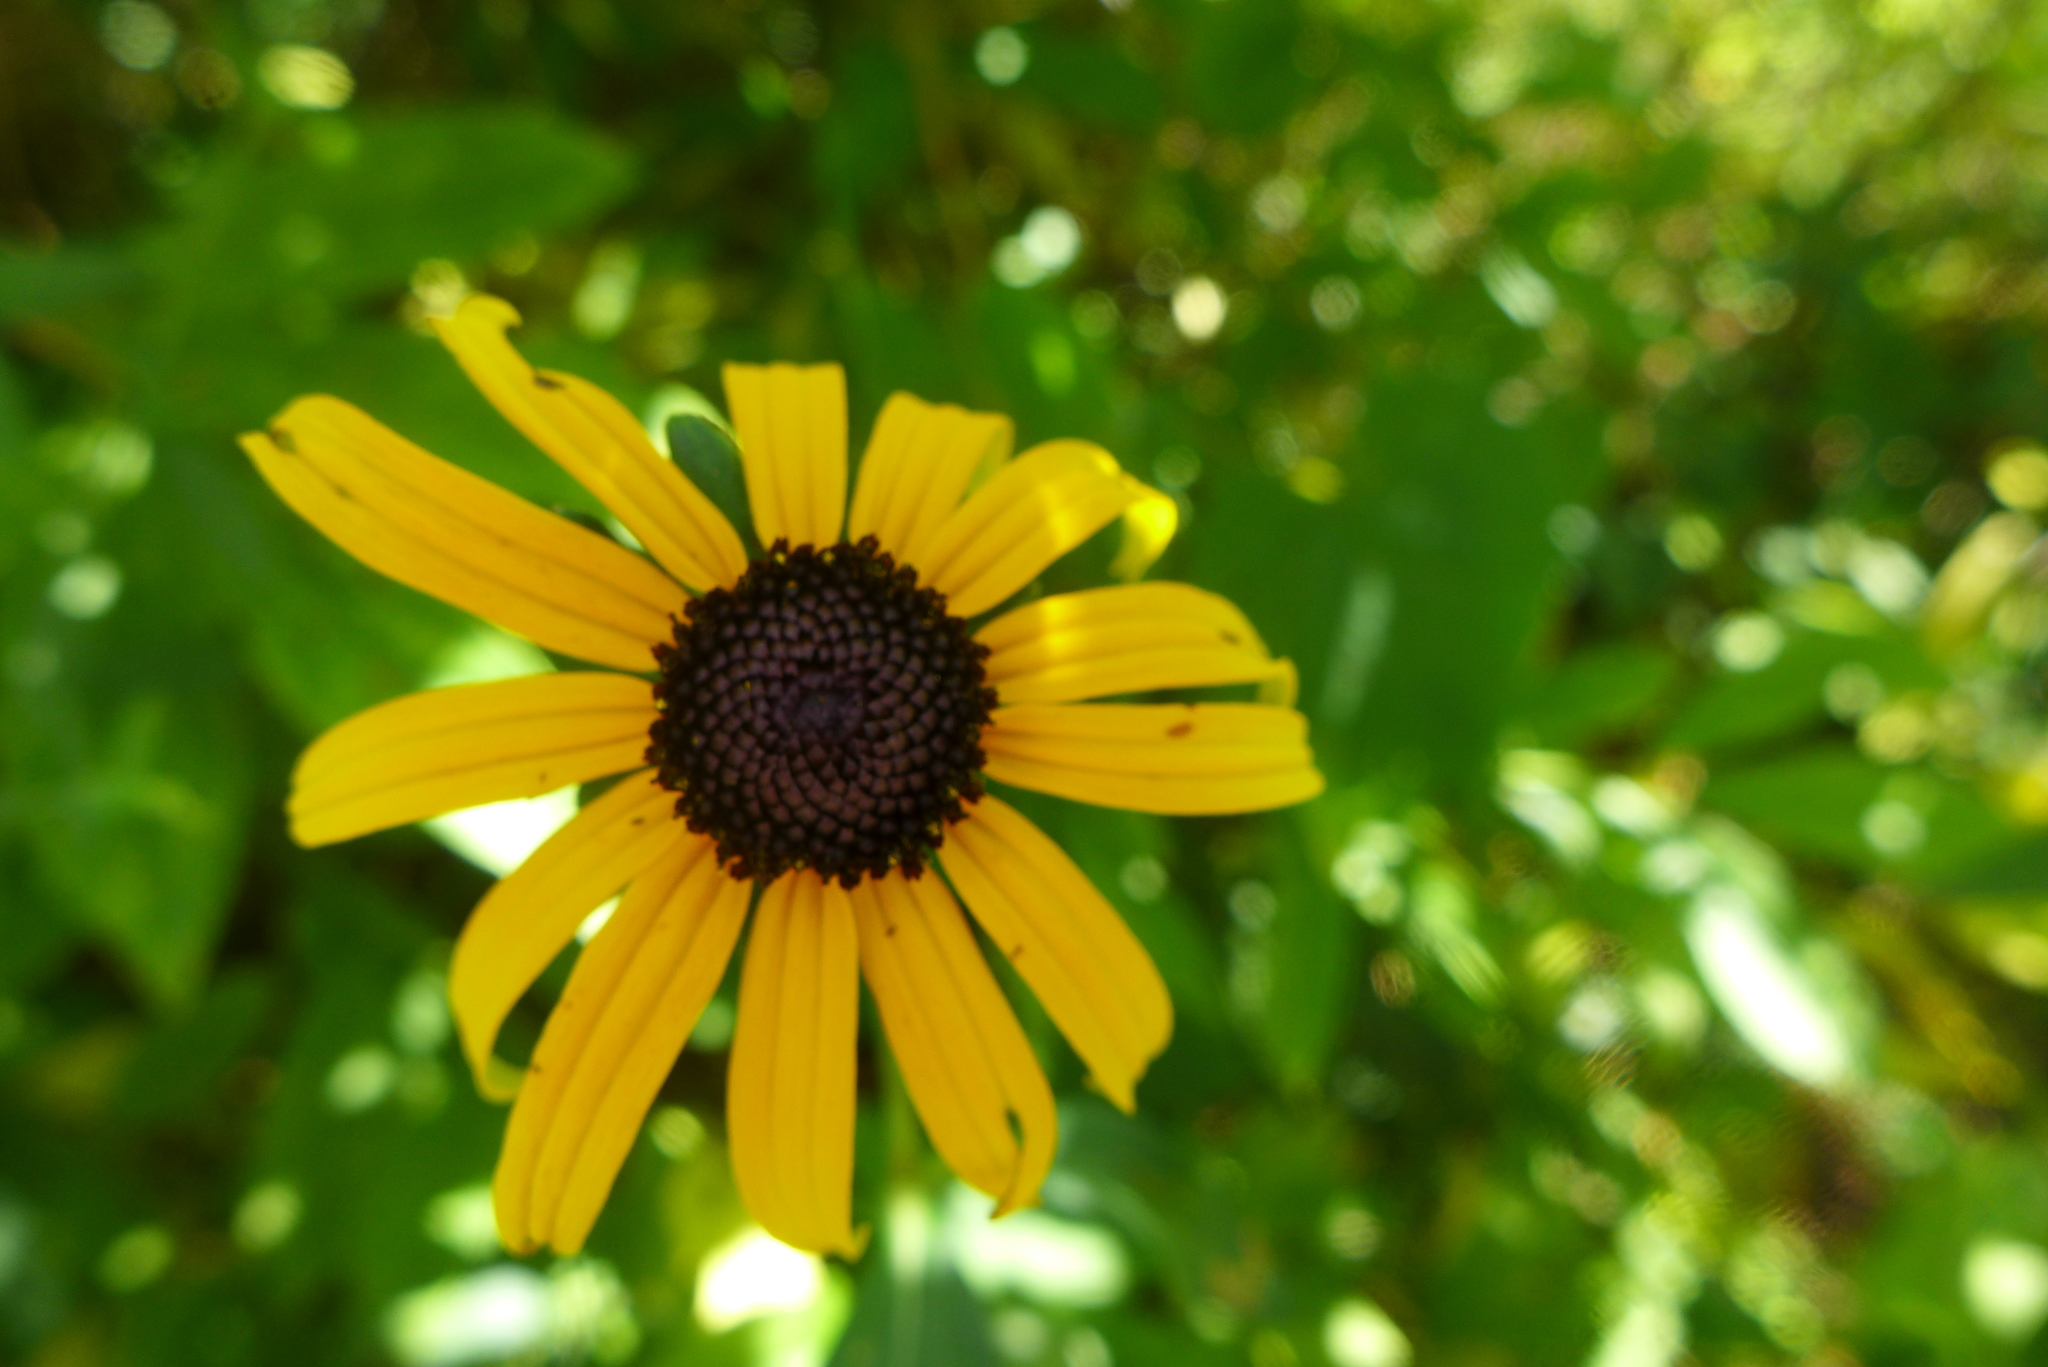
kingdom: Plantae
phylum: Tracheophyta
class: Magnoliopsida
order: Asterales
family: Asteraceae
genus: Rudbeckia
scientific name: Rudbeckia hirta
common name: Black-eyed-susan
